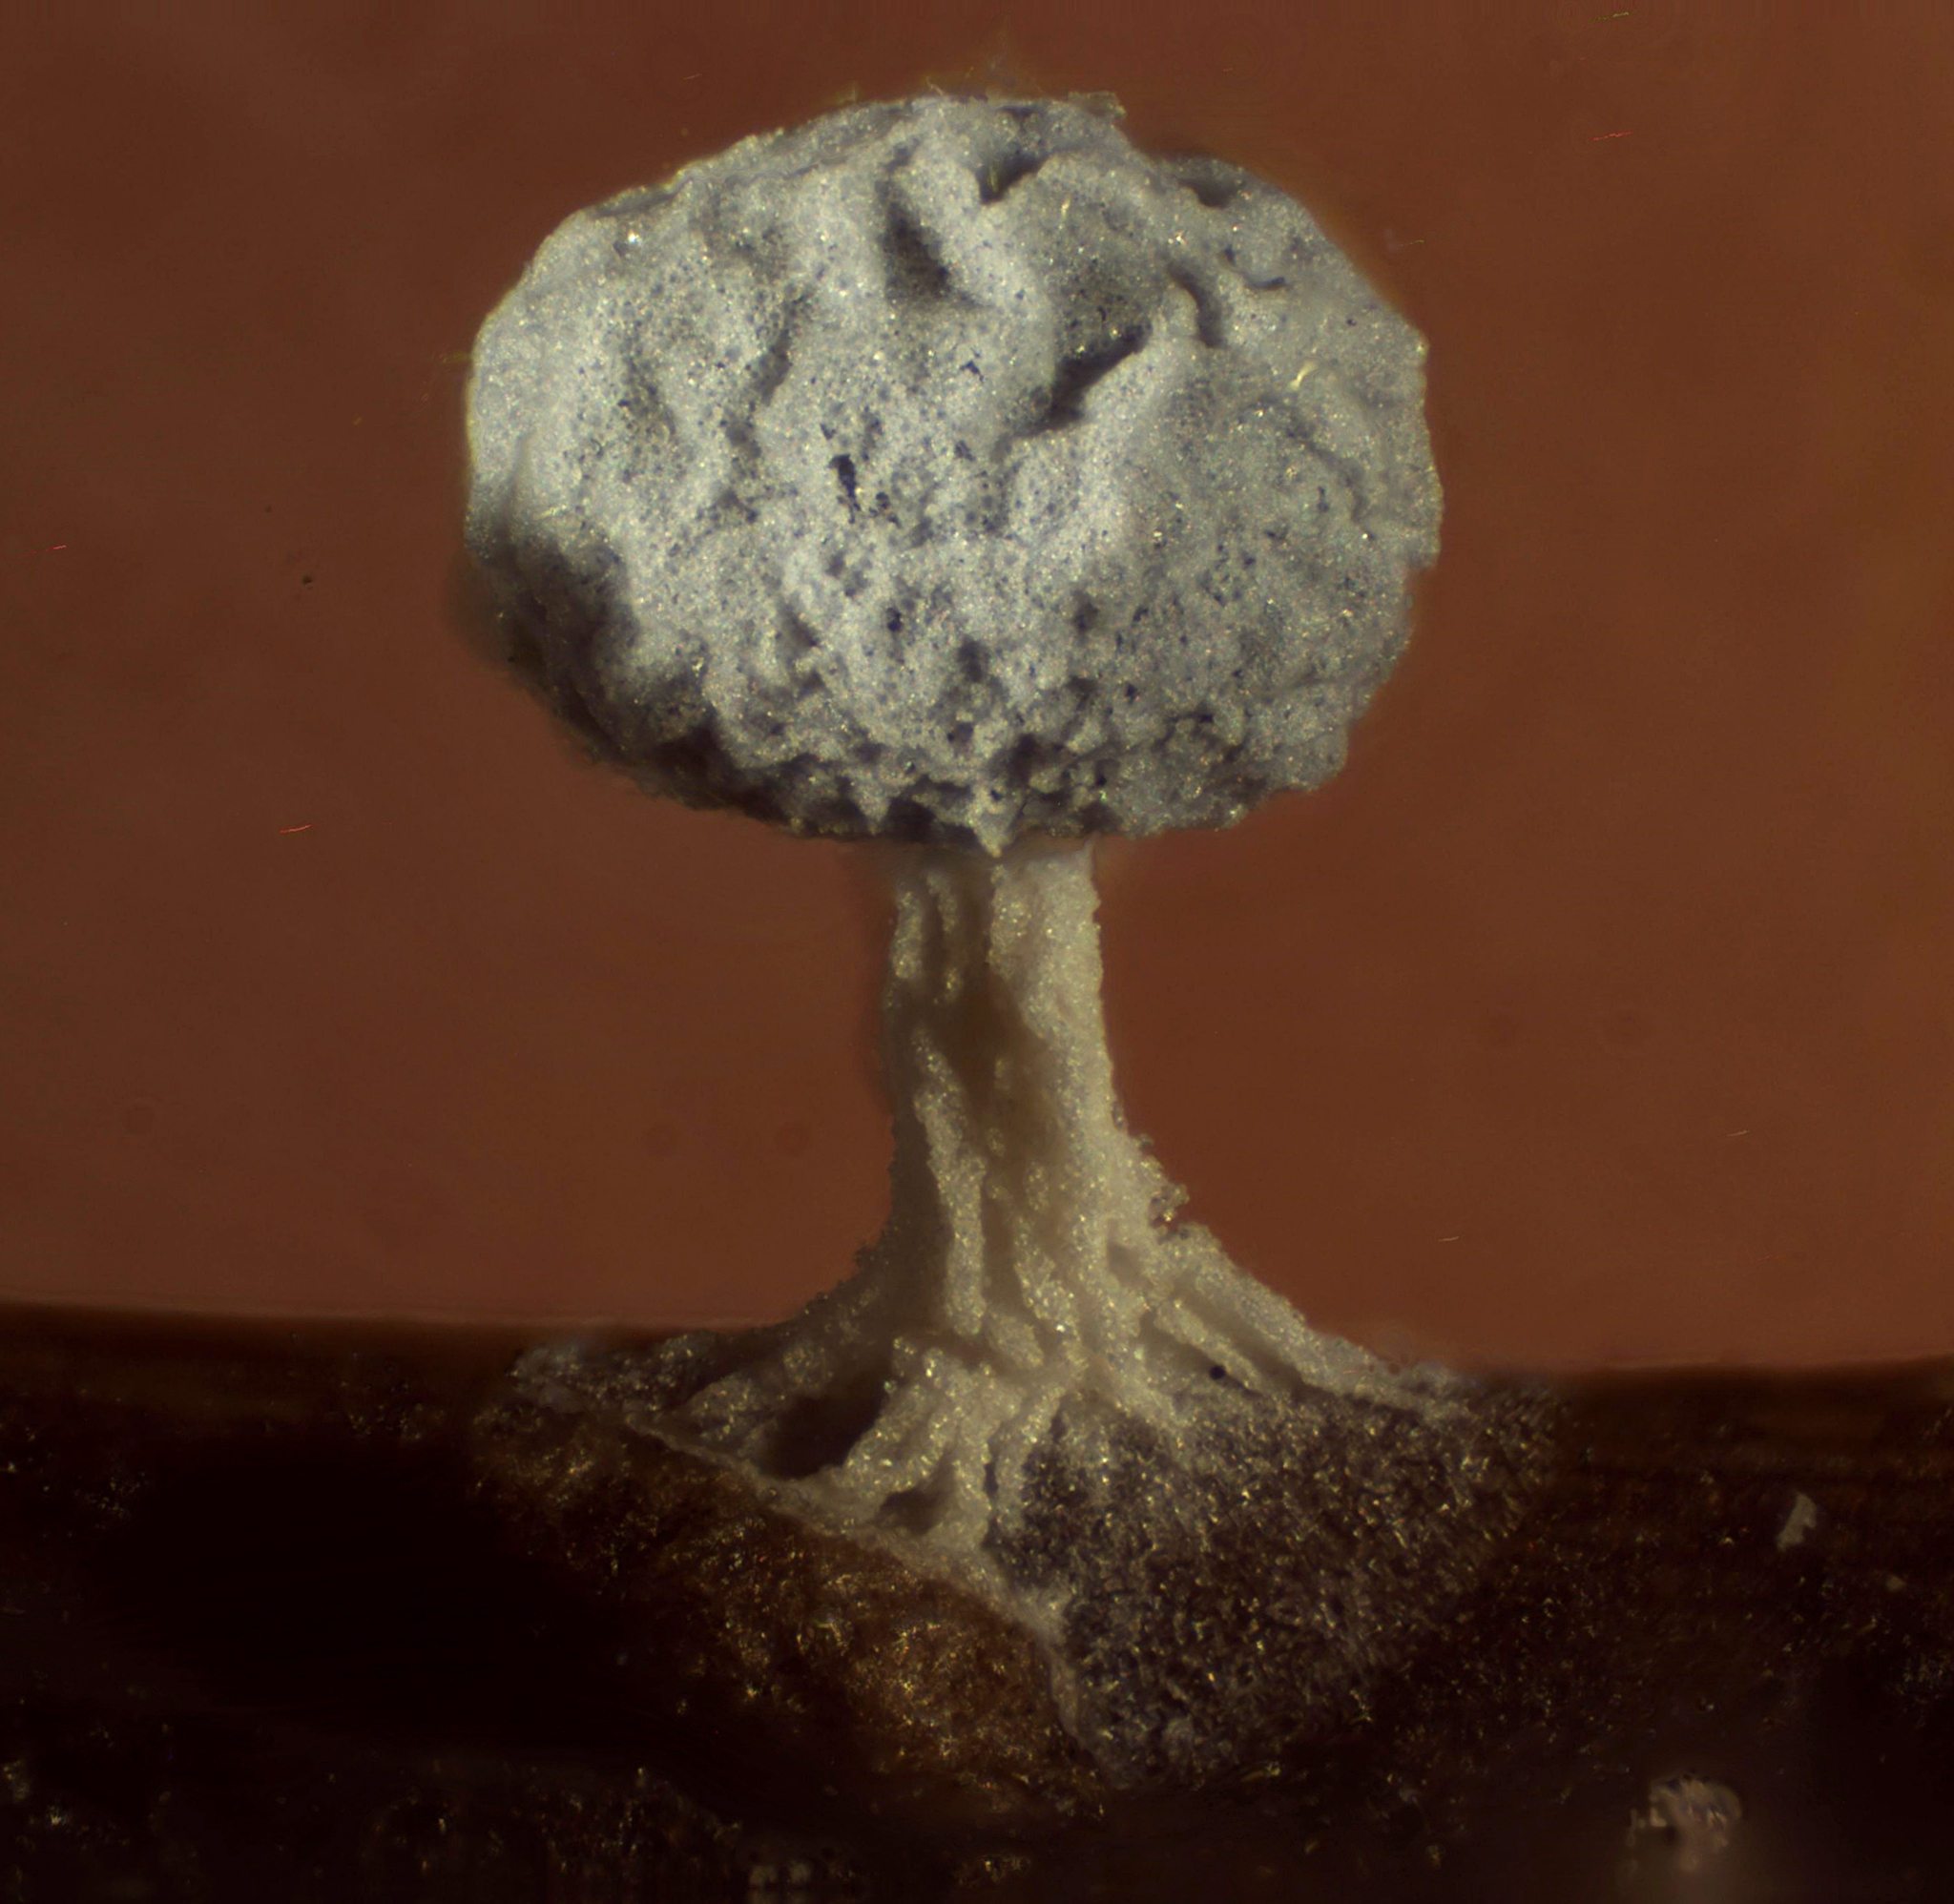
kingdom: Protozoa
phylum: Mycetozoa
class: Myxomycetes
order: Physarales
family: Didymiaceae
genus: Didymium
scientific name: Didymium karstensii
